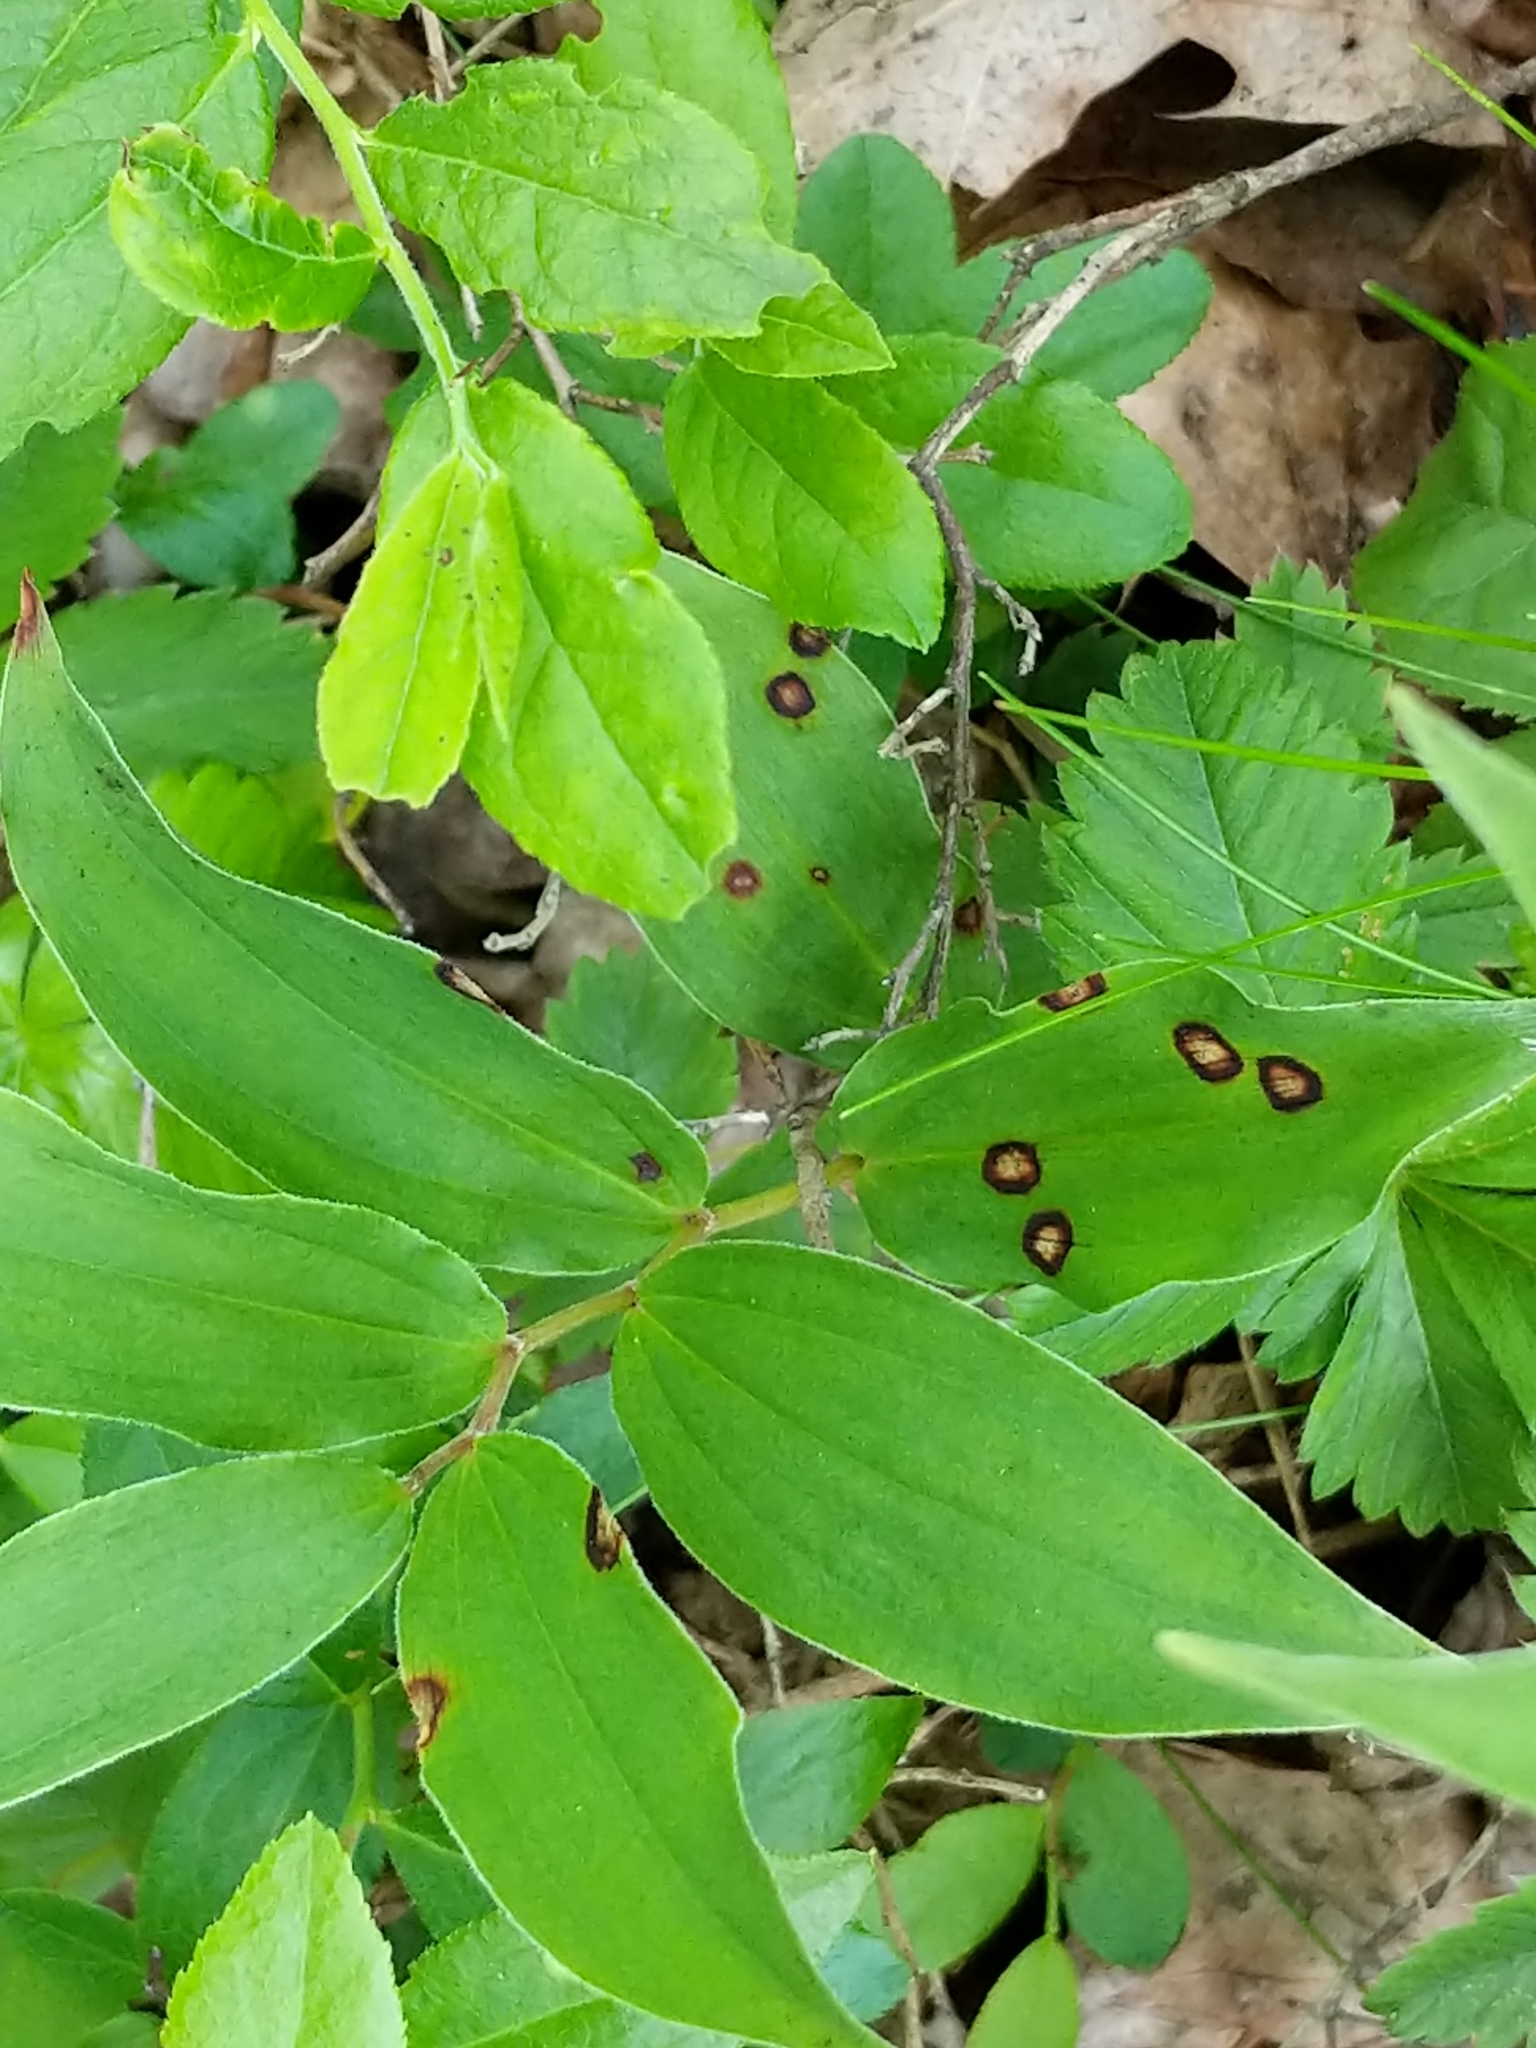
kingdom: Plantae
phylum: Tracheophyta
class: Liliopsida
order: Asparagales
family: Asparagaceae
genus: Maianthemum
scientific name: Maianthemum racemosum
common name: False spikenard
